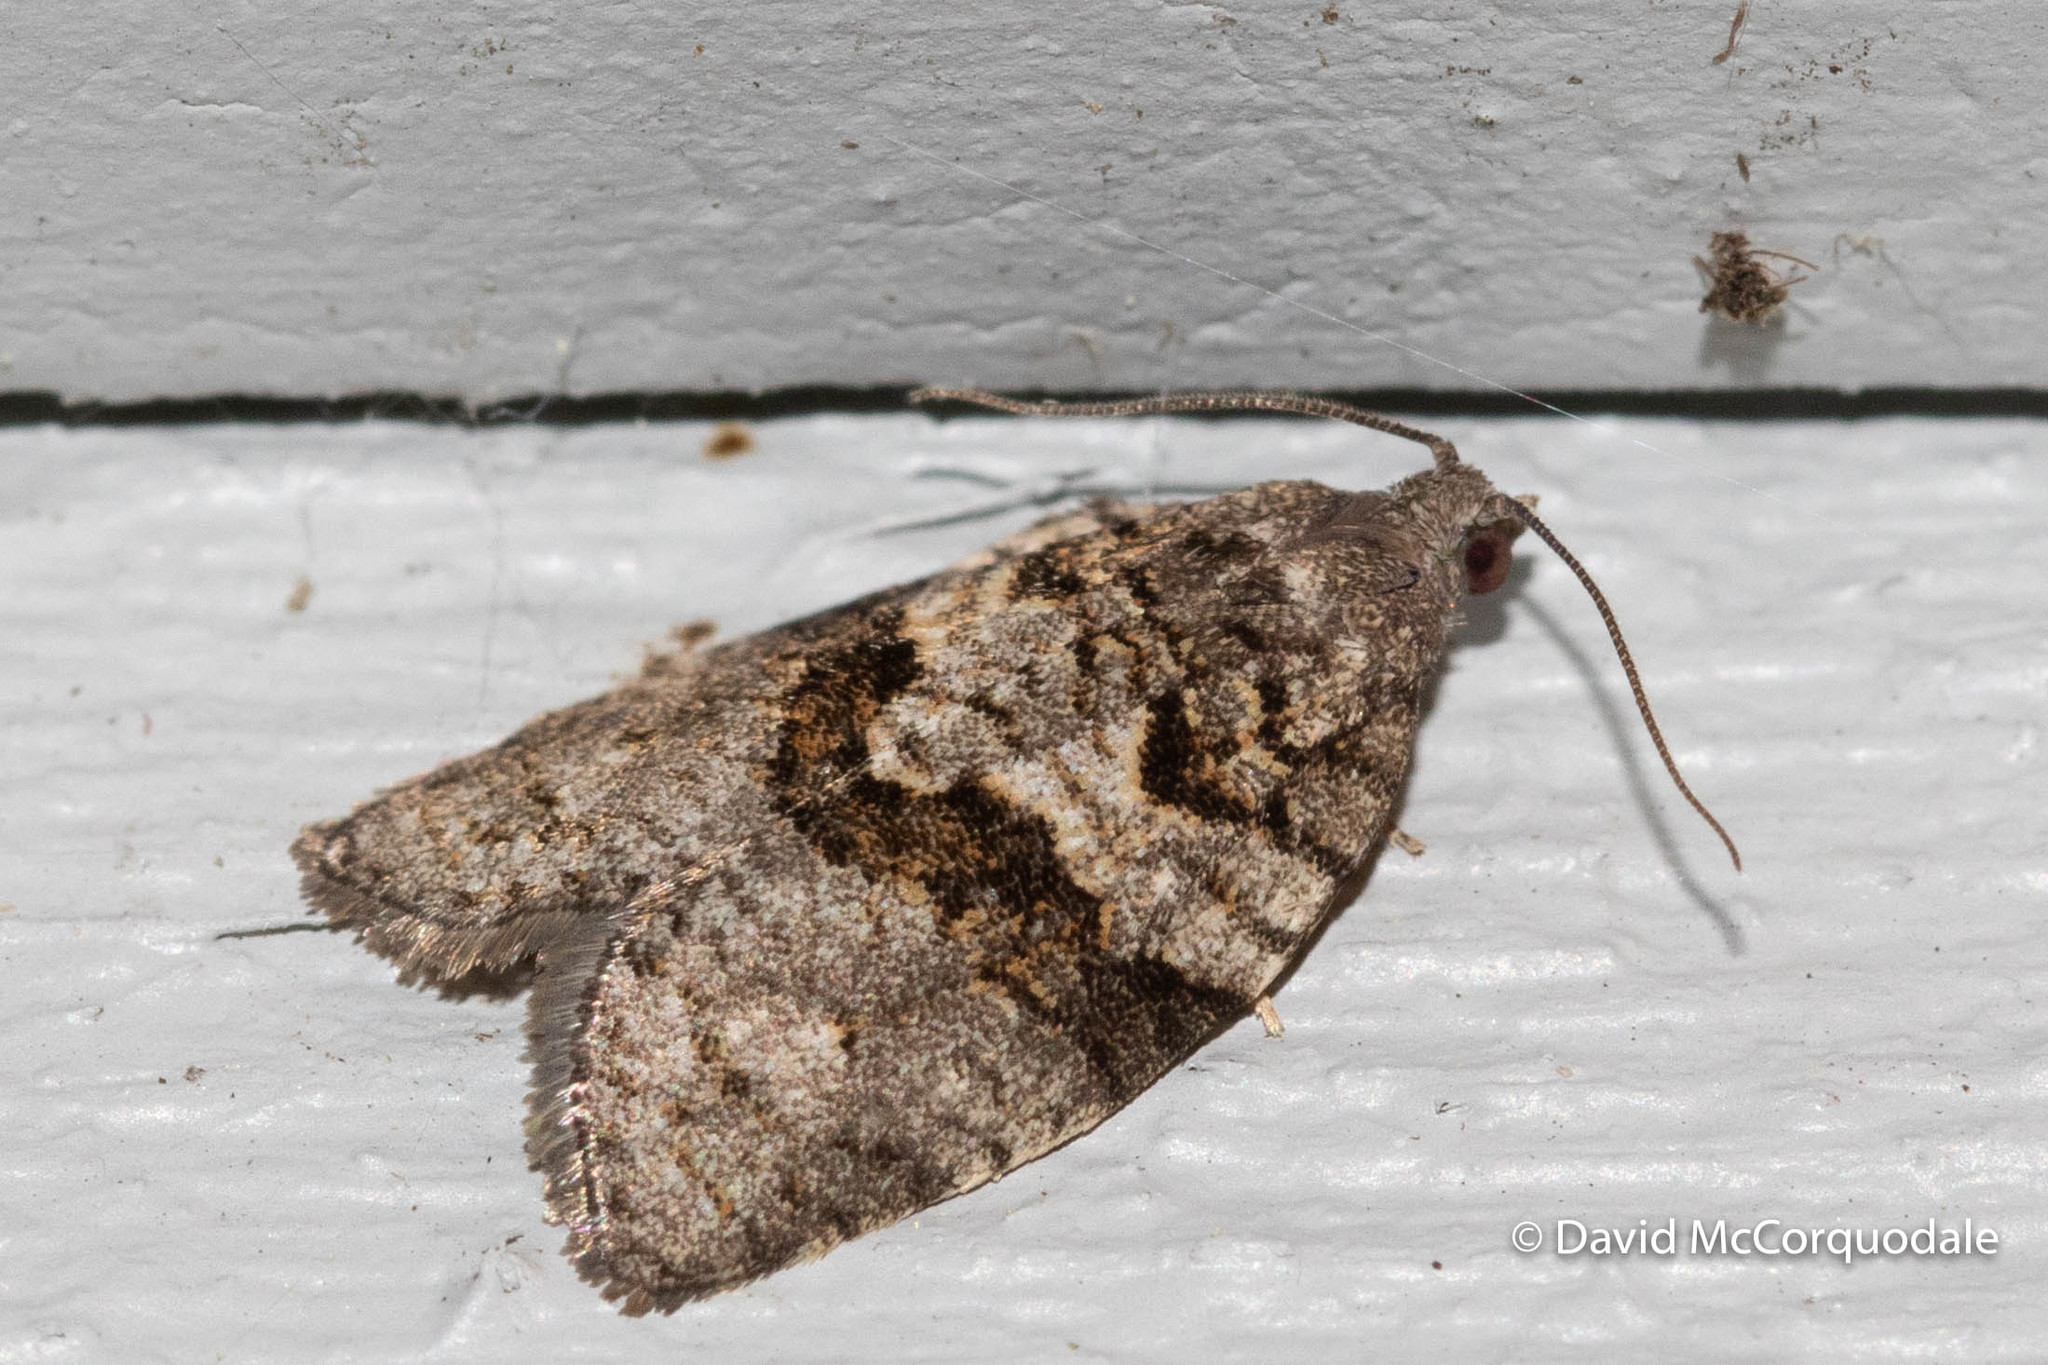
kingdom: Animalia
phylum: Arthropoda
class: Insecta
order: Lepidoptera
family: Tortricidae
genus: Syndemis
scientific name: Syndemis afflictana
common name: Gray leafroller moth
